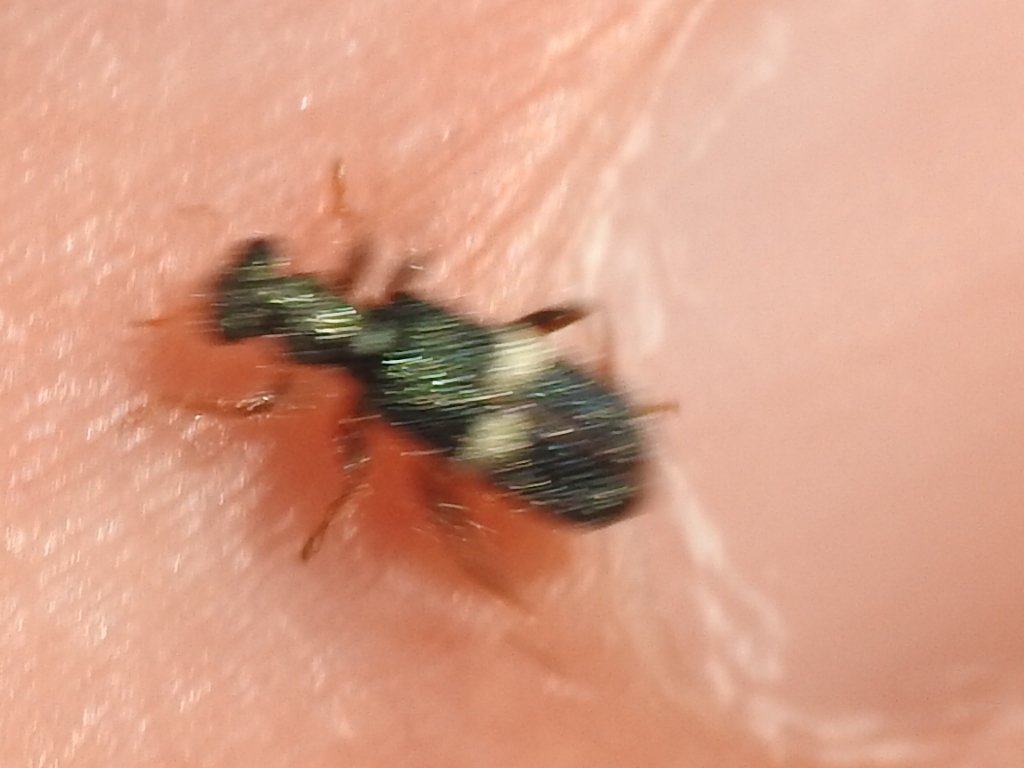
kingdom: Animalia
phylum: Arthropoda
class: Insecta
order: Coleoptera
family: Cleridae
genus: Phyllobaenus
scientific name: Phyllobaenus unifasciatus
